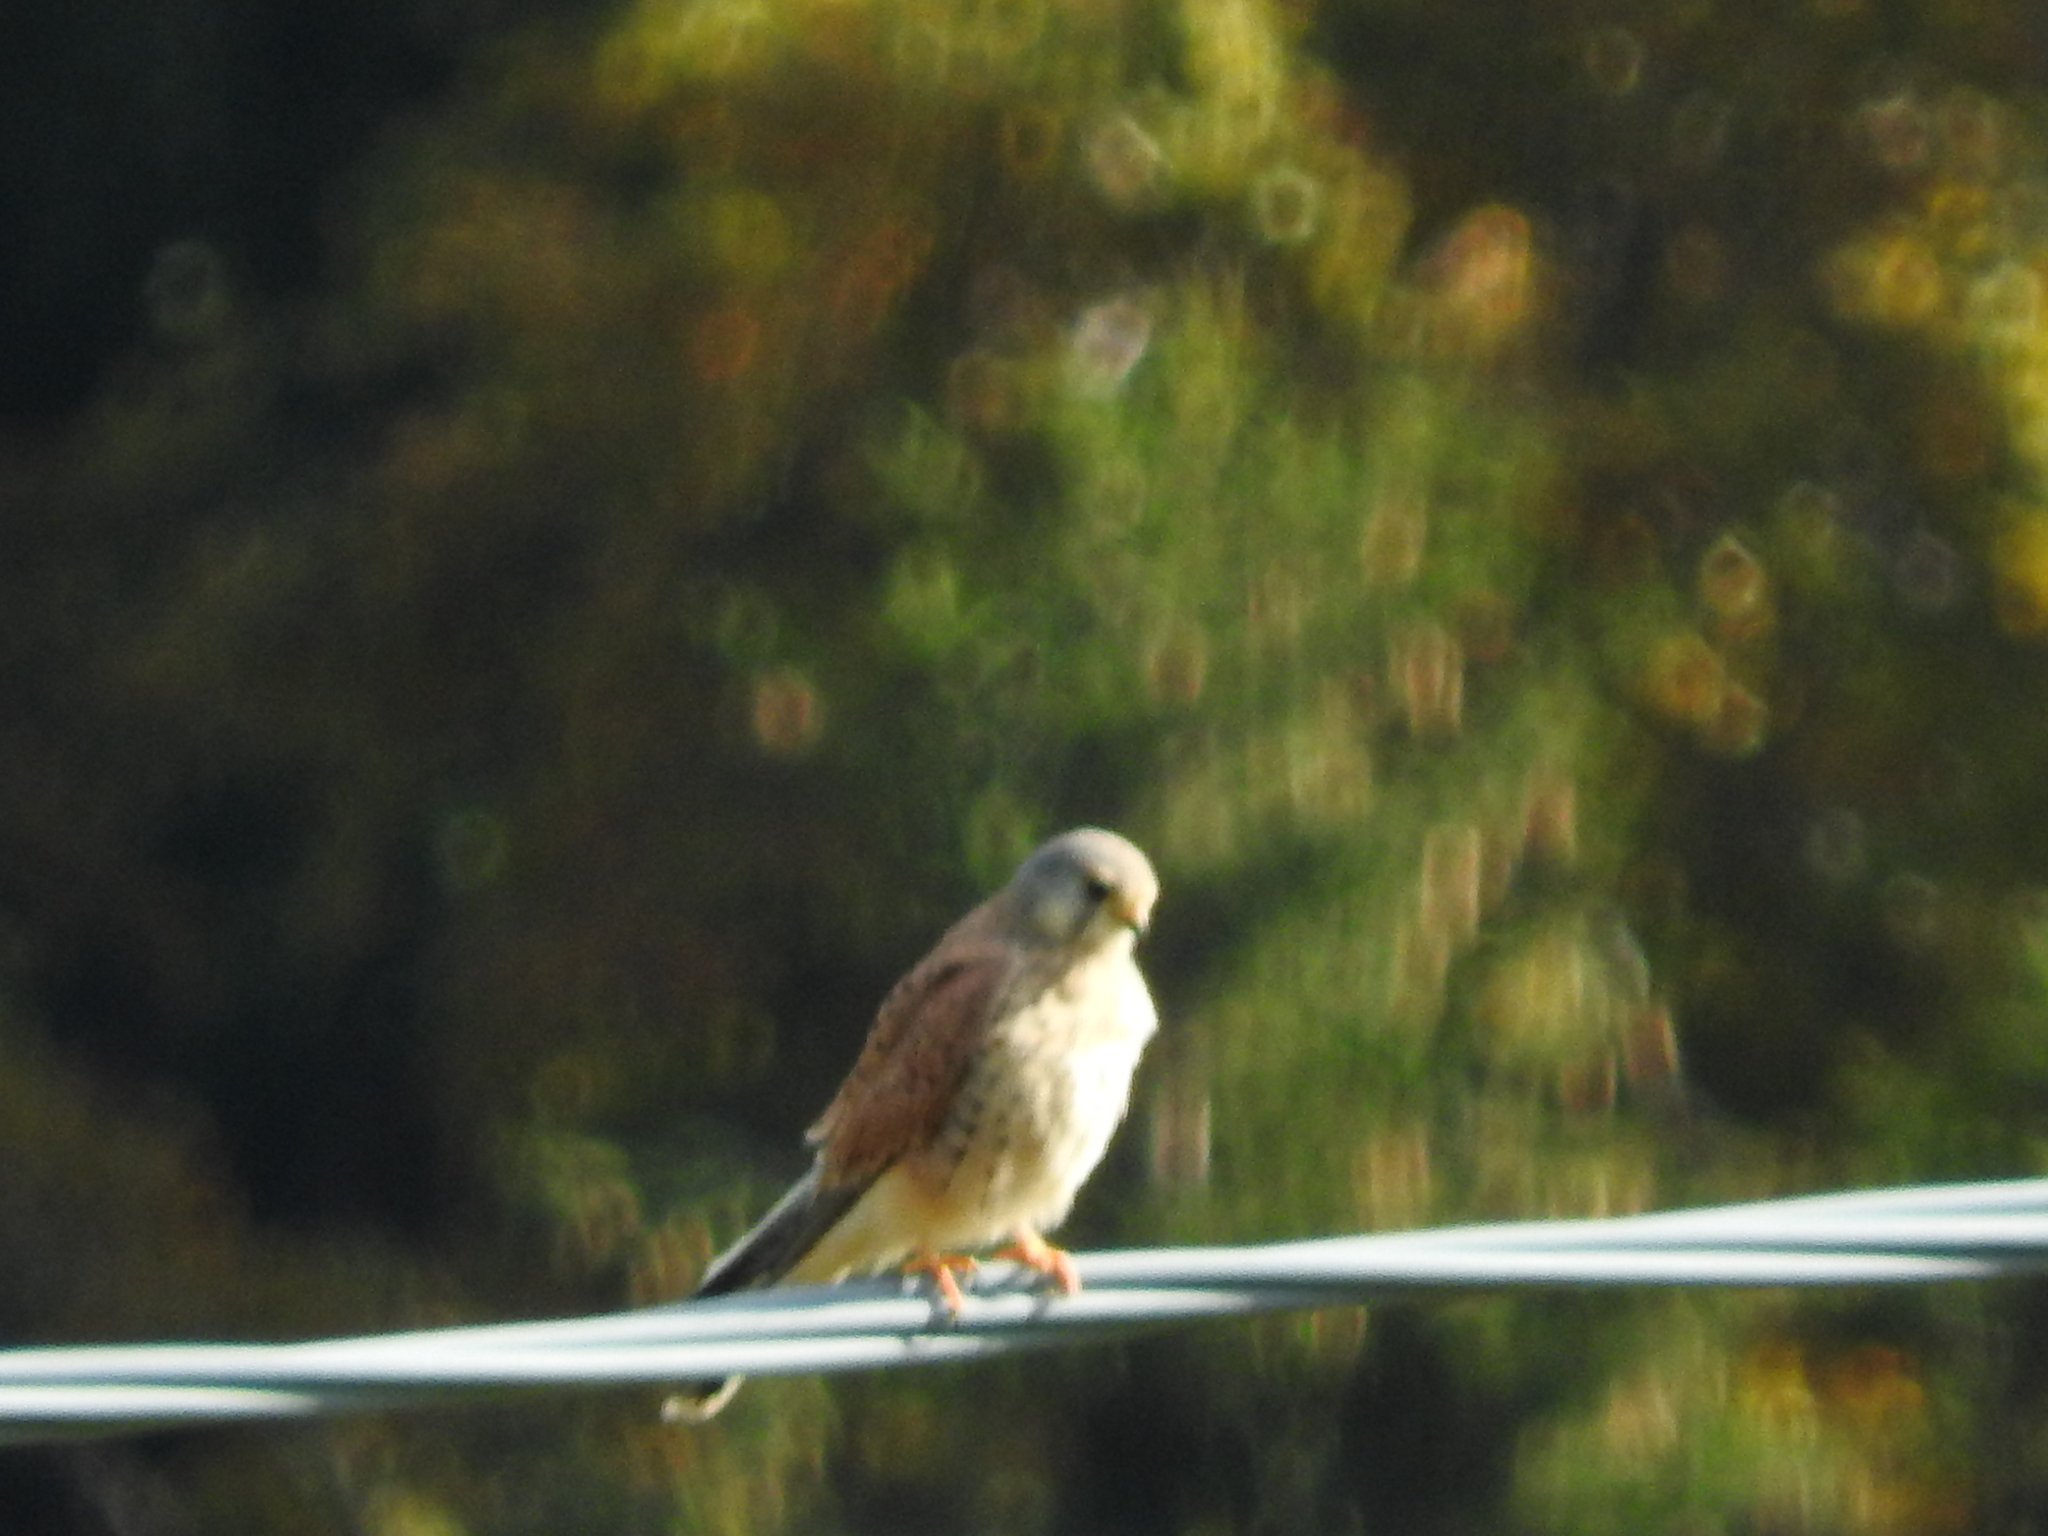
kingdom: Animalia
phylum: Chordata
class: Aves
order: Falconiformes
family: Falconidae
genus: Falco
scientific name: Falco tinnunculus
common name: Common kestrel
